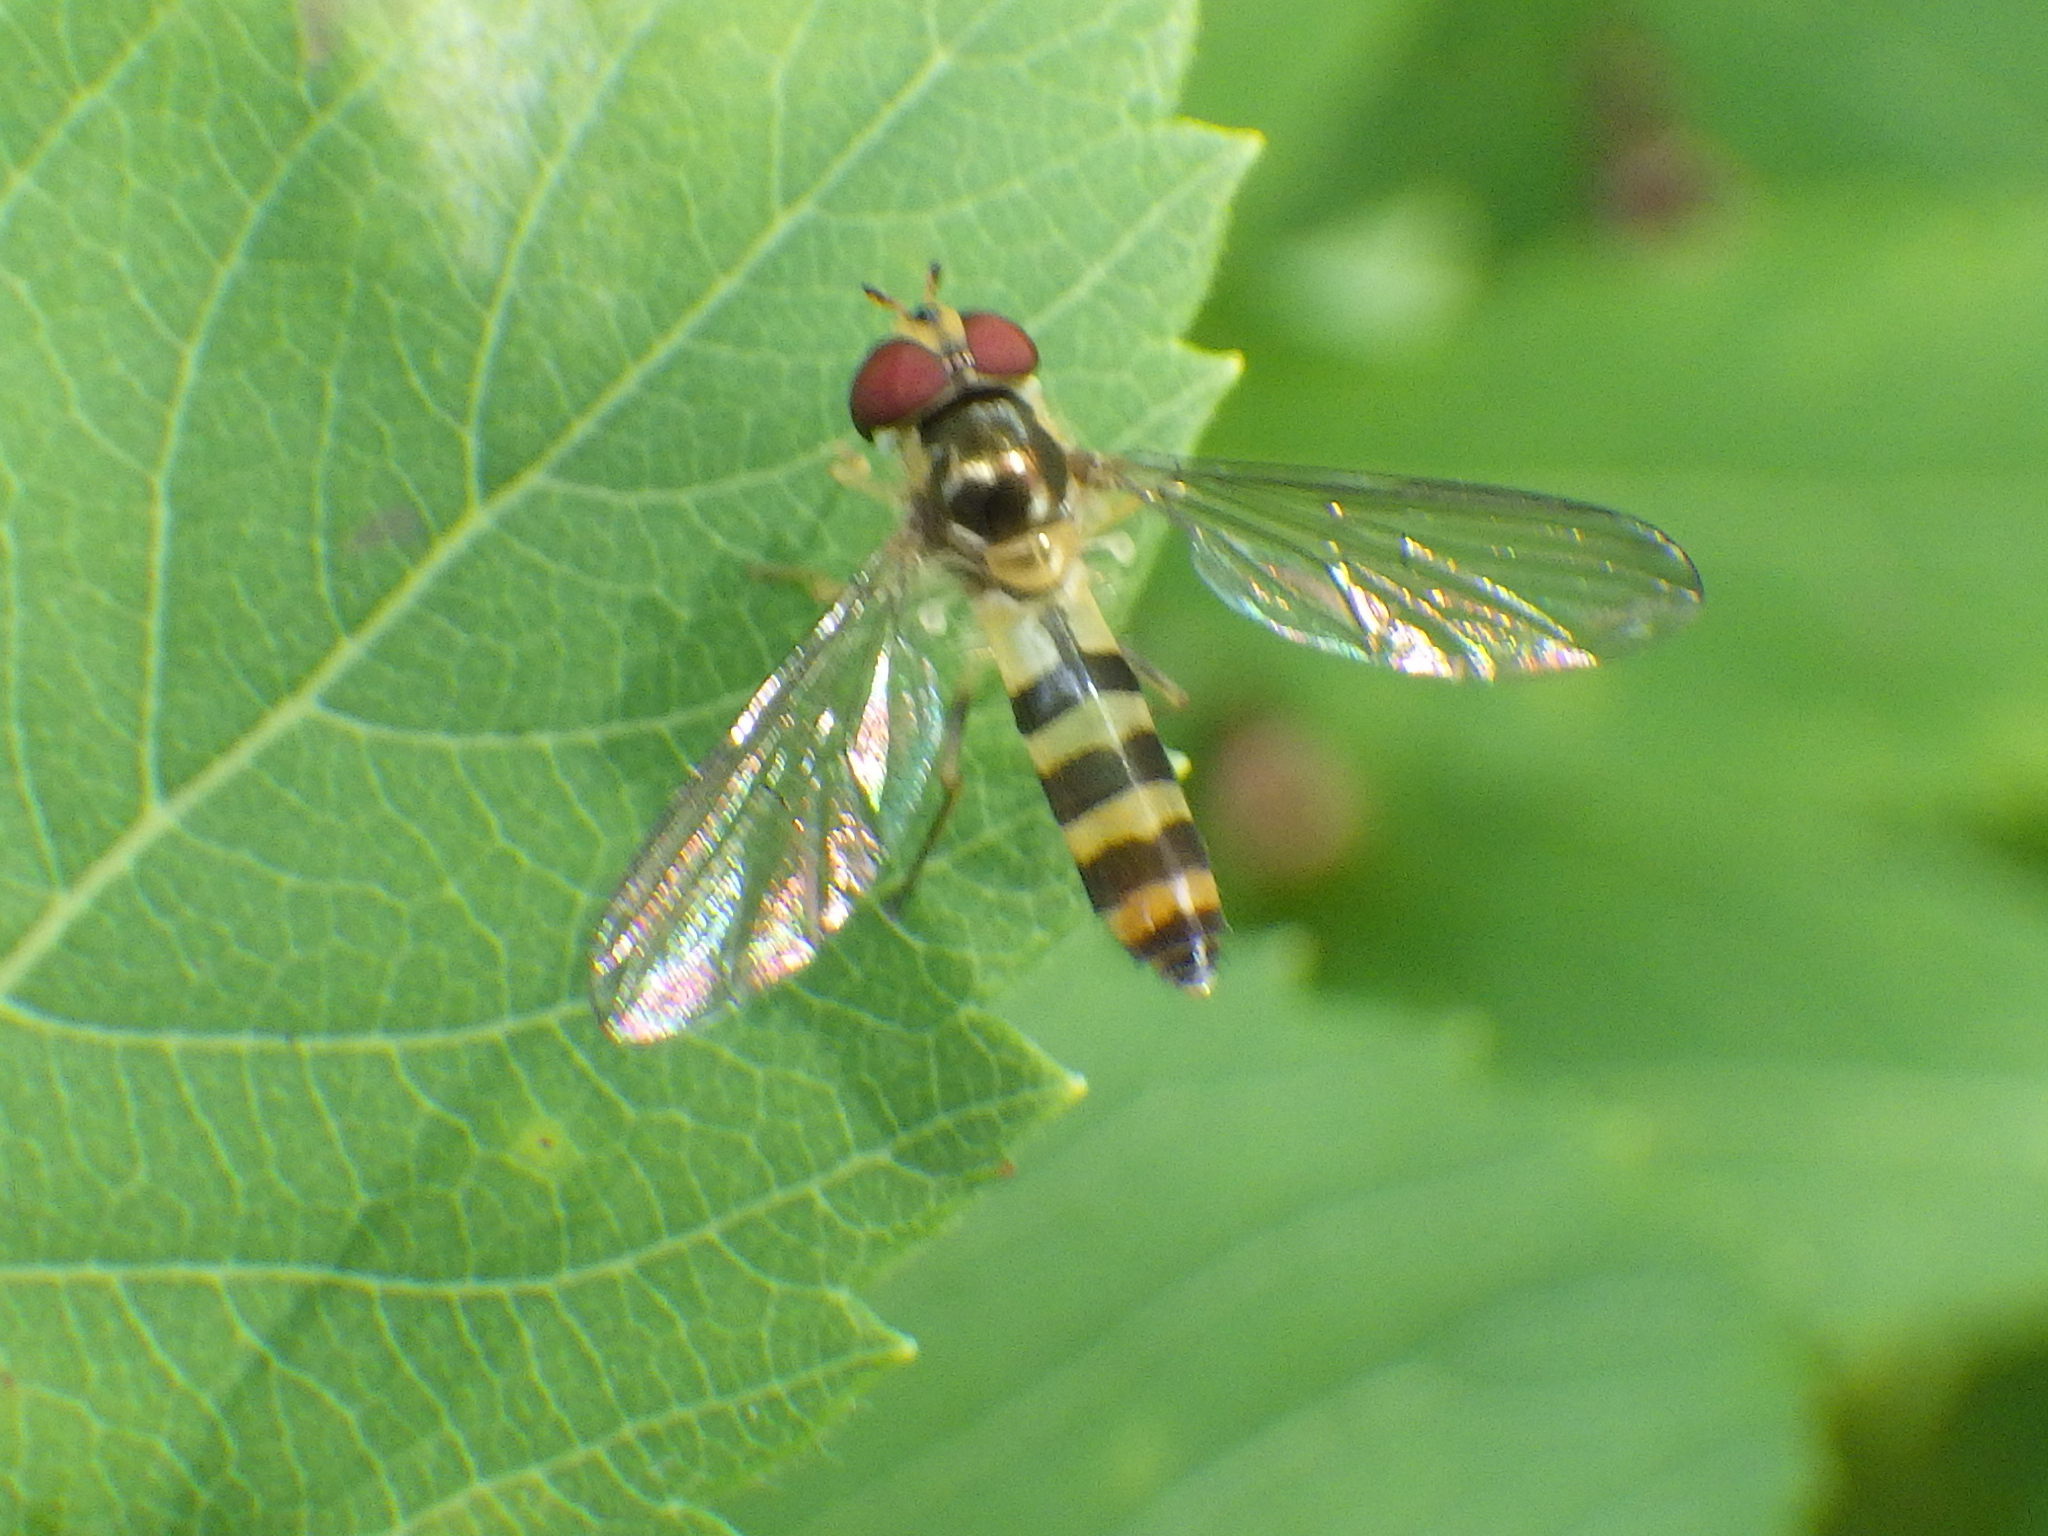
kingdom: Animalia
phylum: Arthropoda
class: Insecta
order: Diptera
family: Syrphidae
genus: Meliscaeva
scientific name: Meliscaeva cinctella
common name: American thintail fly
